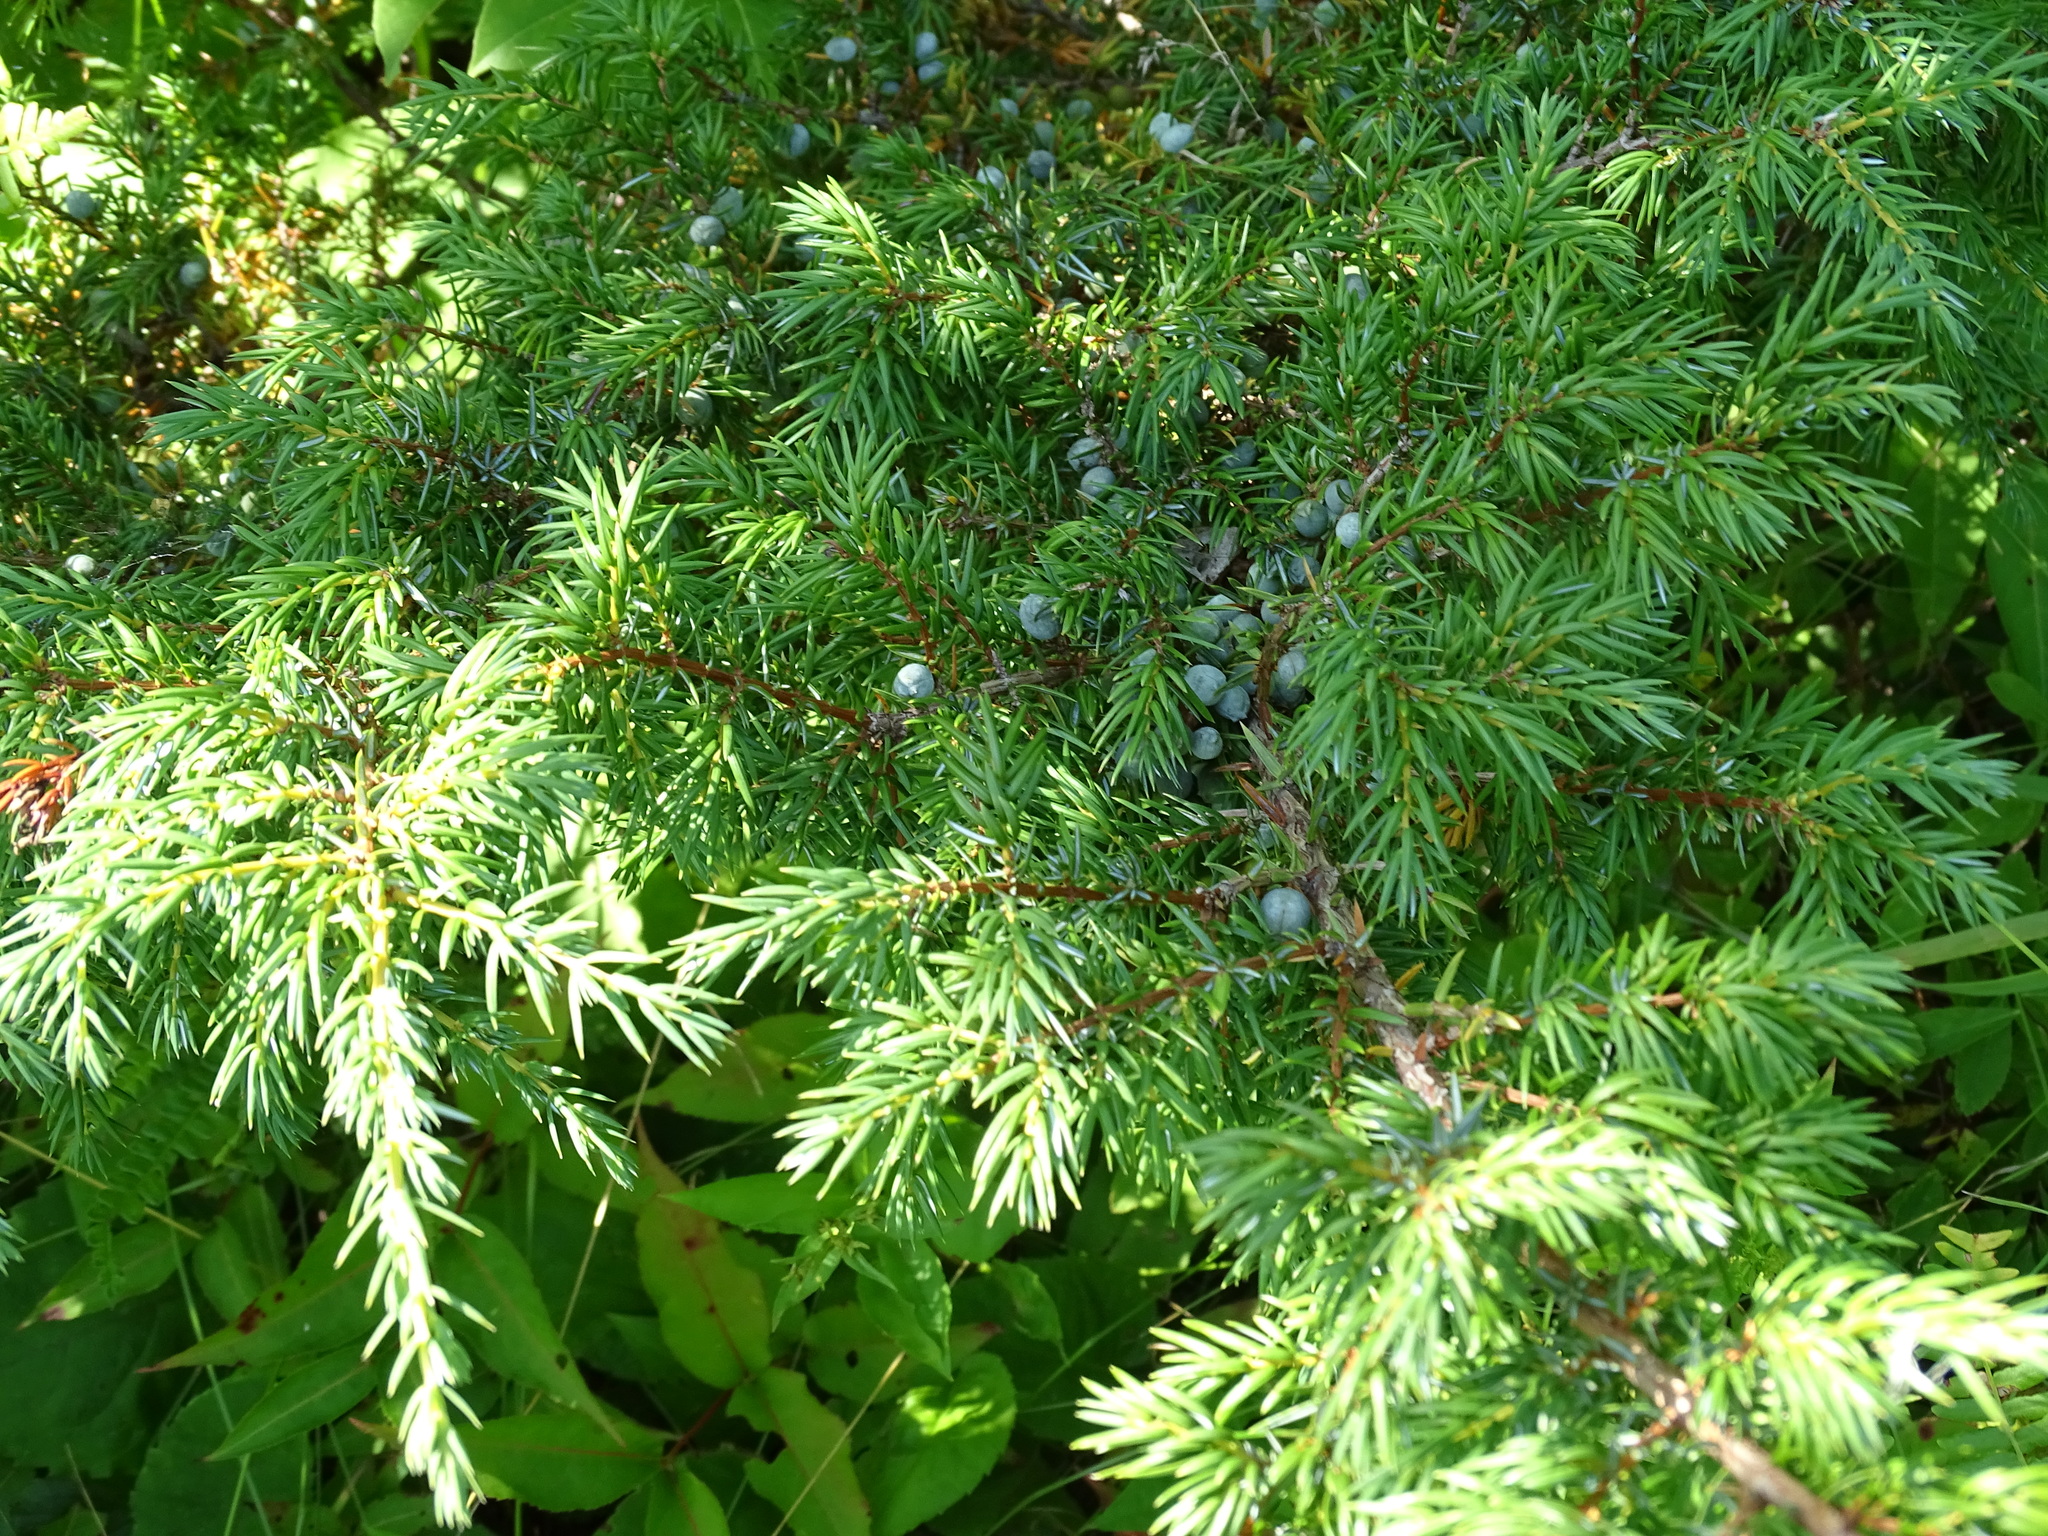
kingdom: Plantae
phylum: Tracheophyta
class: Pinopsida
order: Pinales
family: Cupressaceae
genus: Juniperus
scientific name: Juniperus communis
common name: Common juniper
